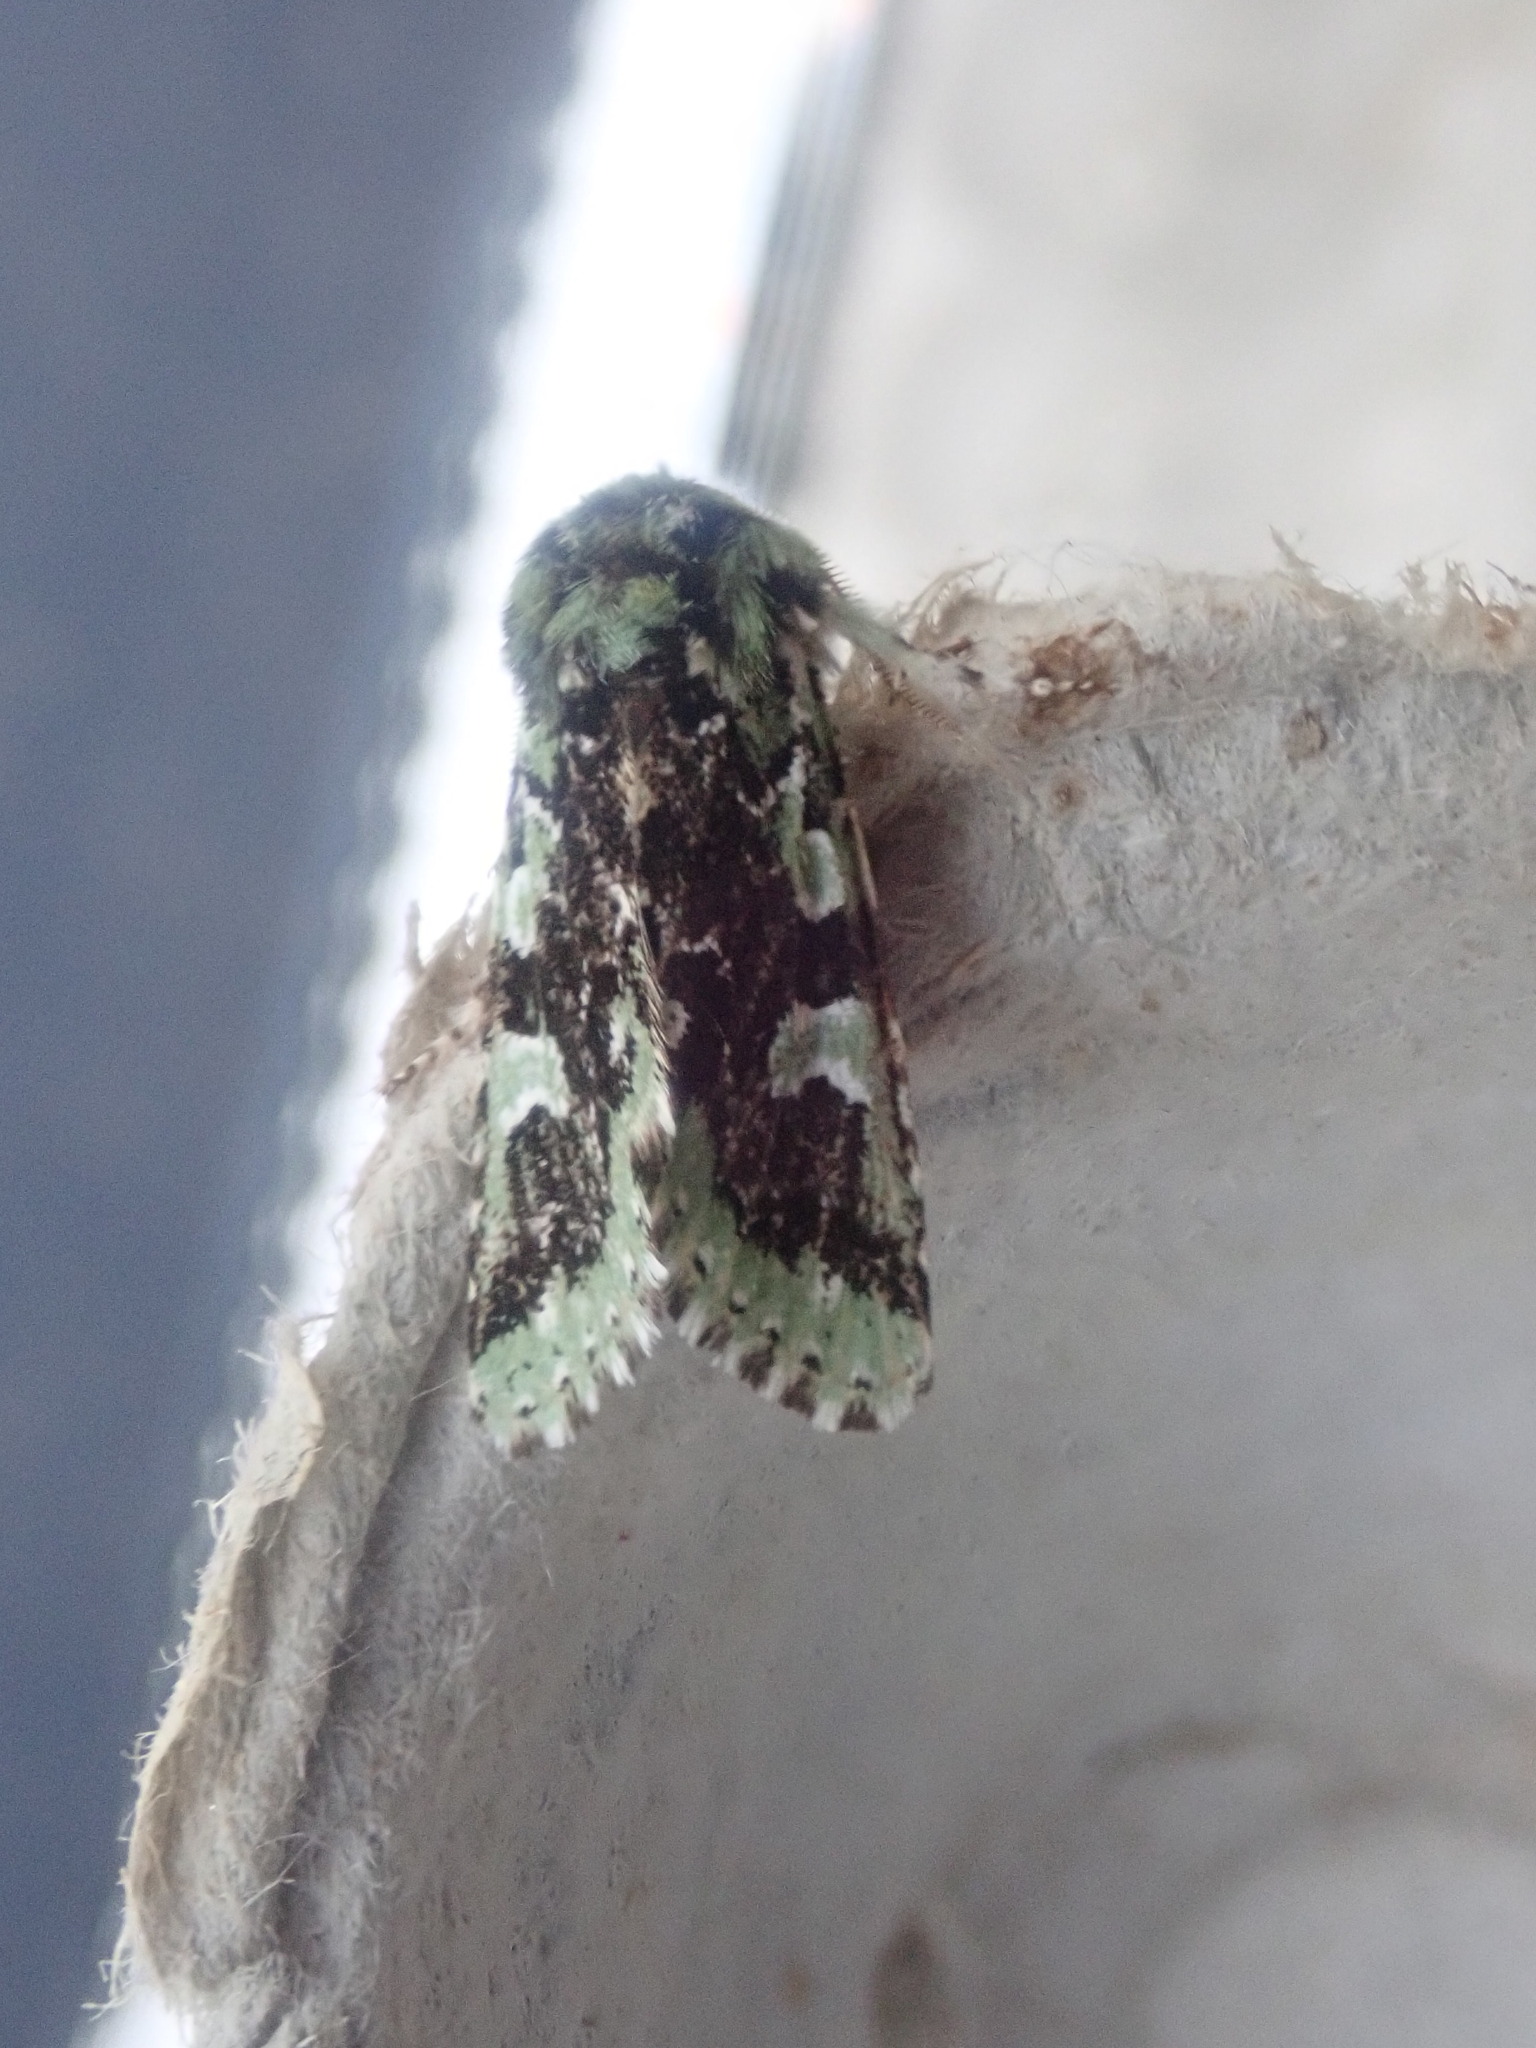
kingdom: Animalia
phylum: Arthropoda
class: Insecta
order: Lepidoptera
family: Noctuidae
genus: Feralia
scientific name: Feralia major
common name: Major sallow
